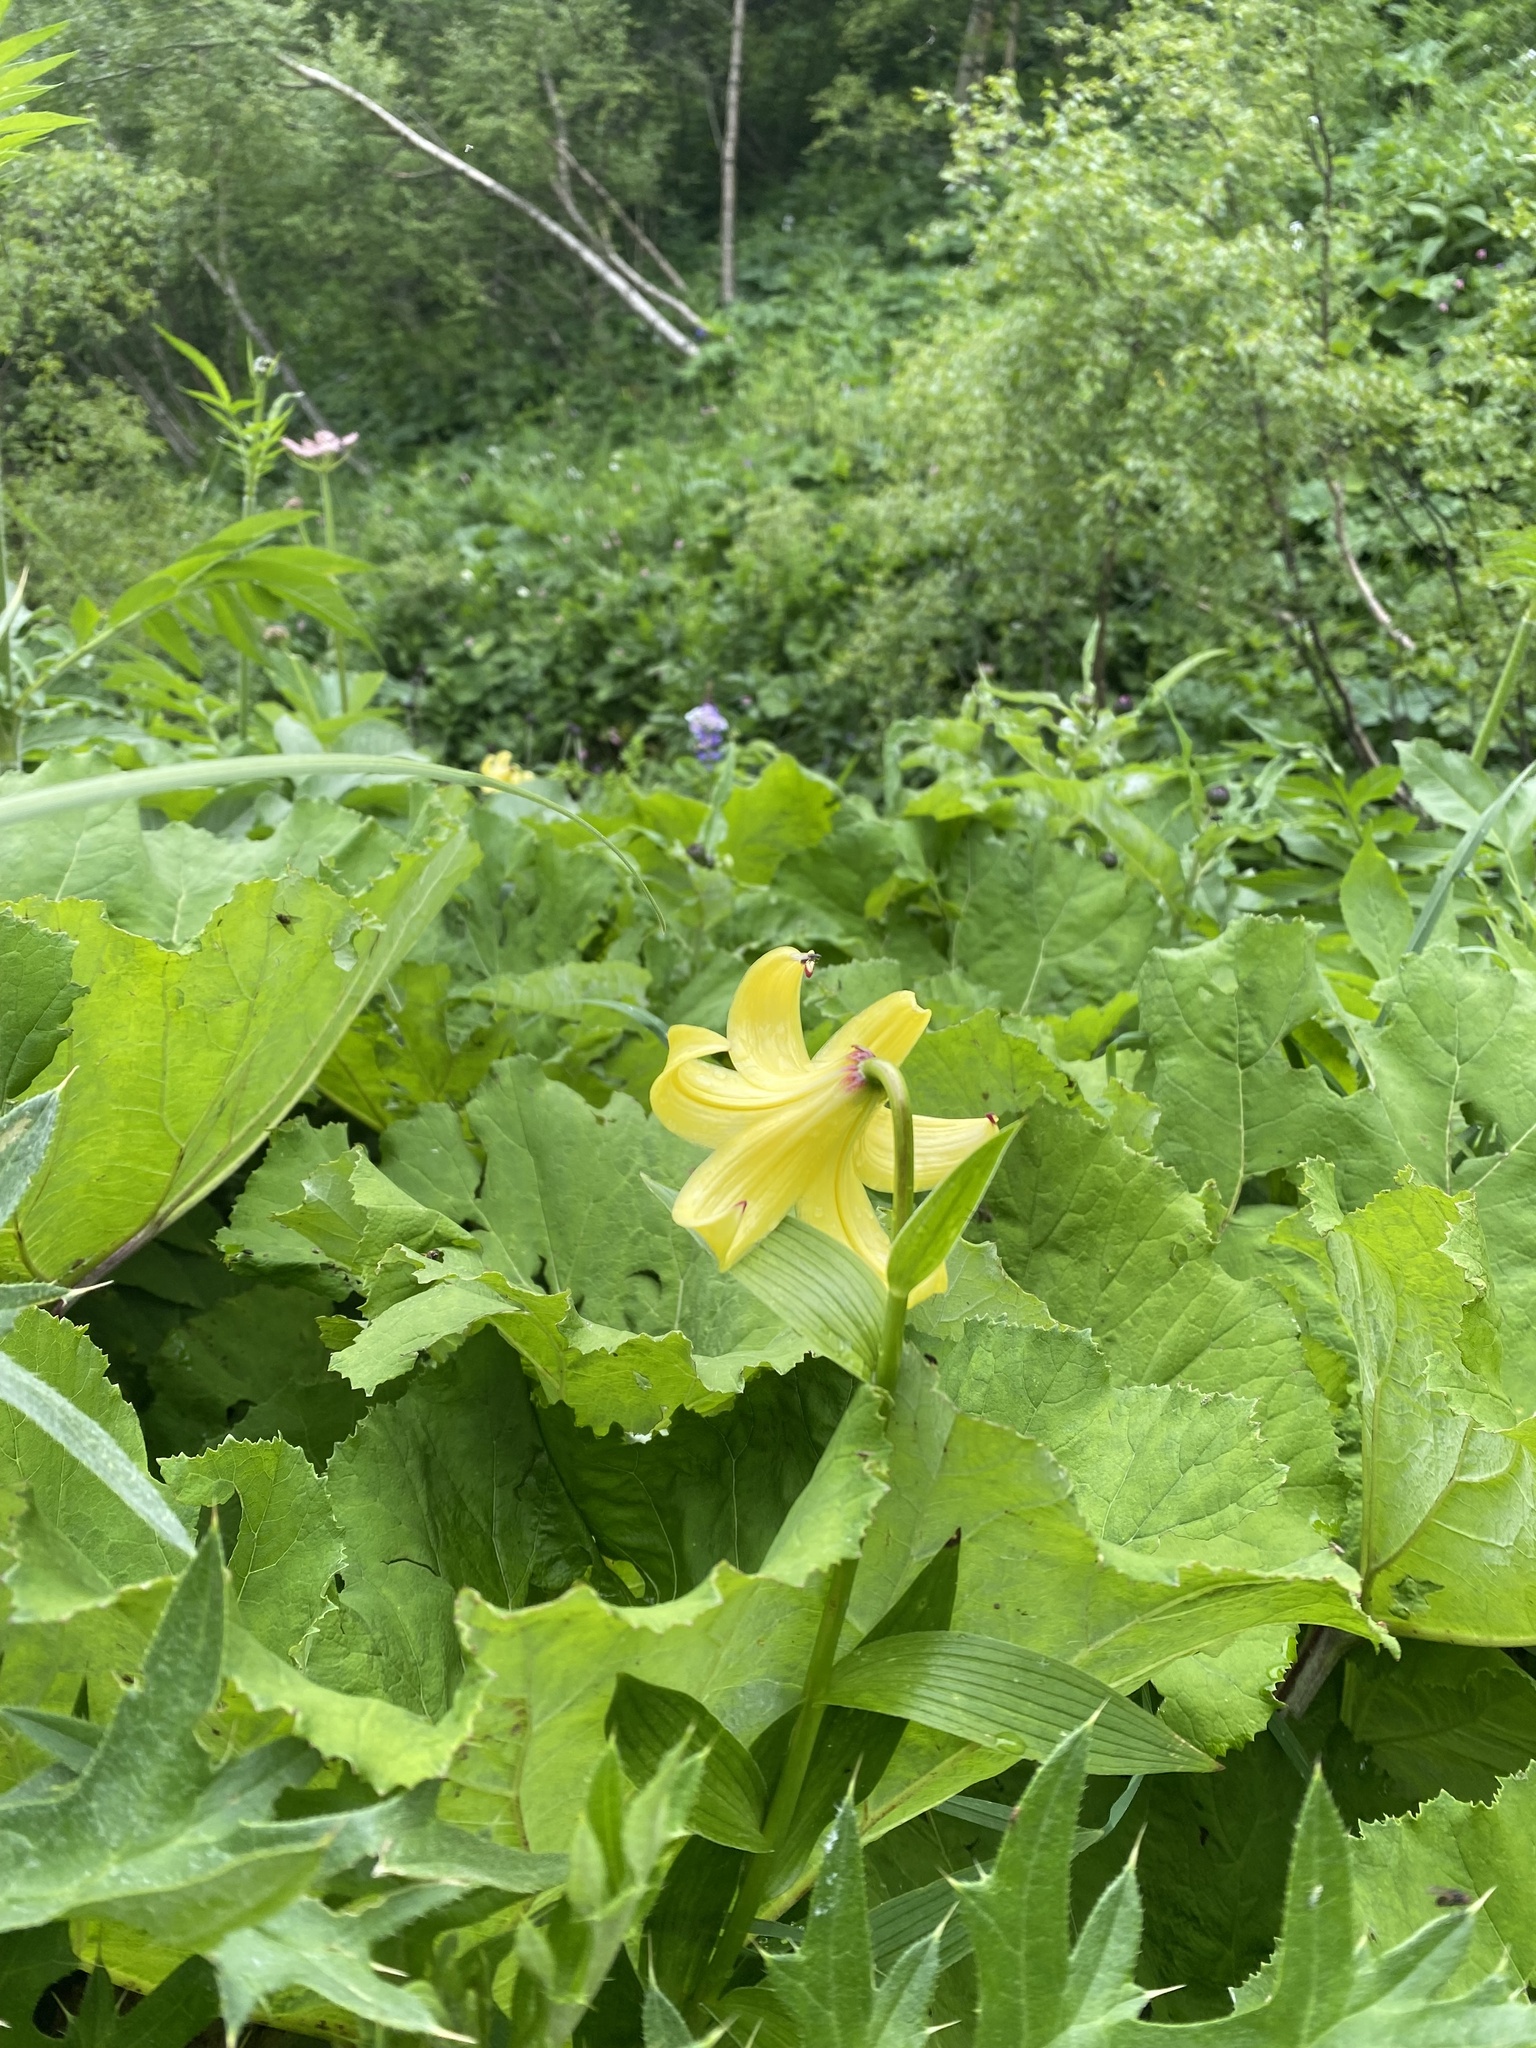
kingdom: Plantae
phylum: Tracheophyta
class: Liliopsida
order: Liliales
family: Liliaceae
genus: Lilium
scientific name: Lilium monadelphum
